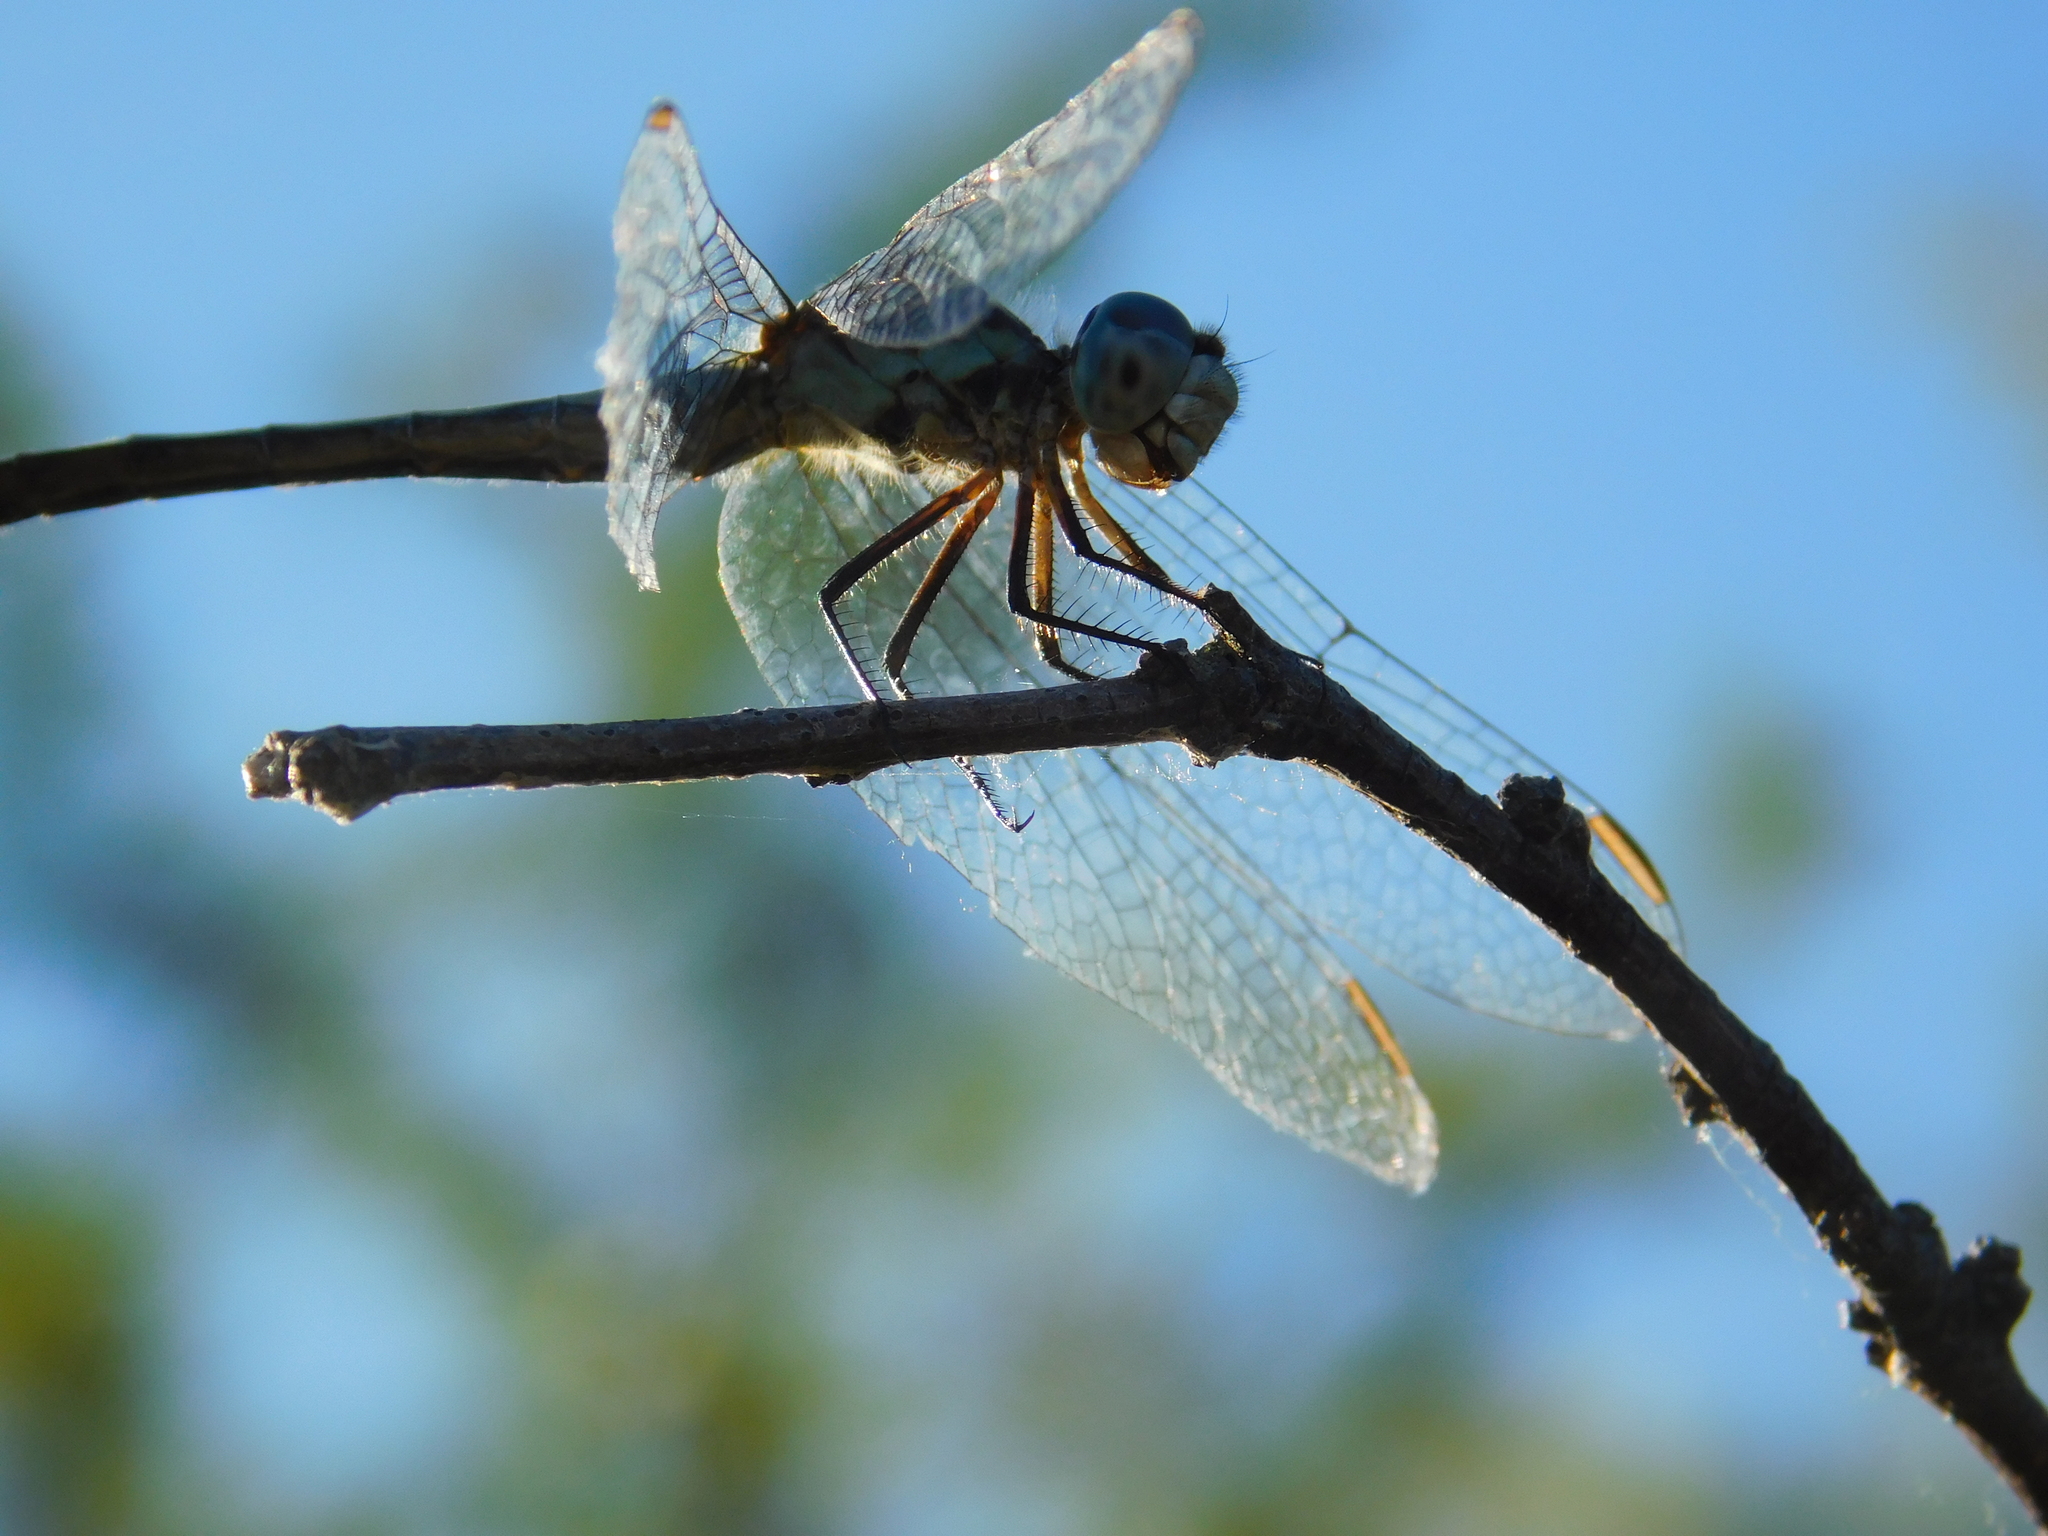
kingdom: Animalia
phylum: Arthropoda
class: Insecta
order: Odonata
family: Libellulidae
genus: Micrathyria
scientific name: Micrathyria longifasciata
